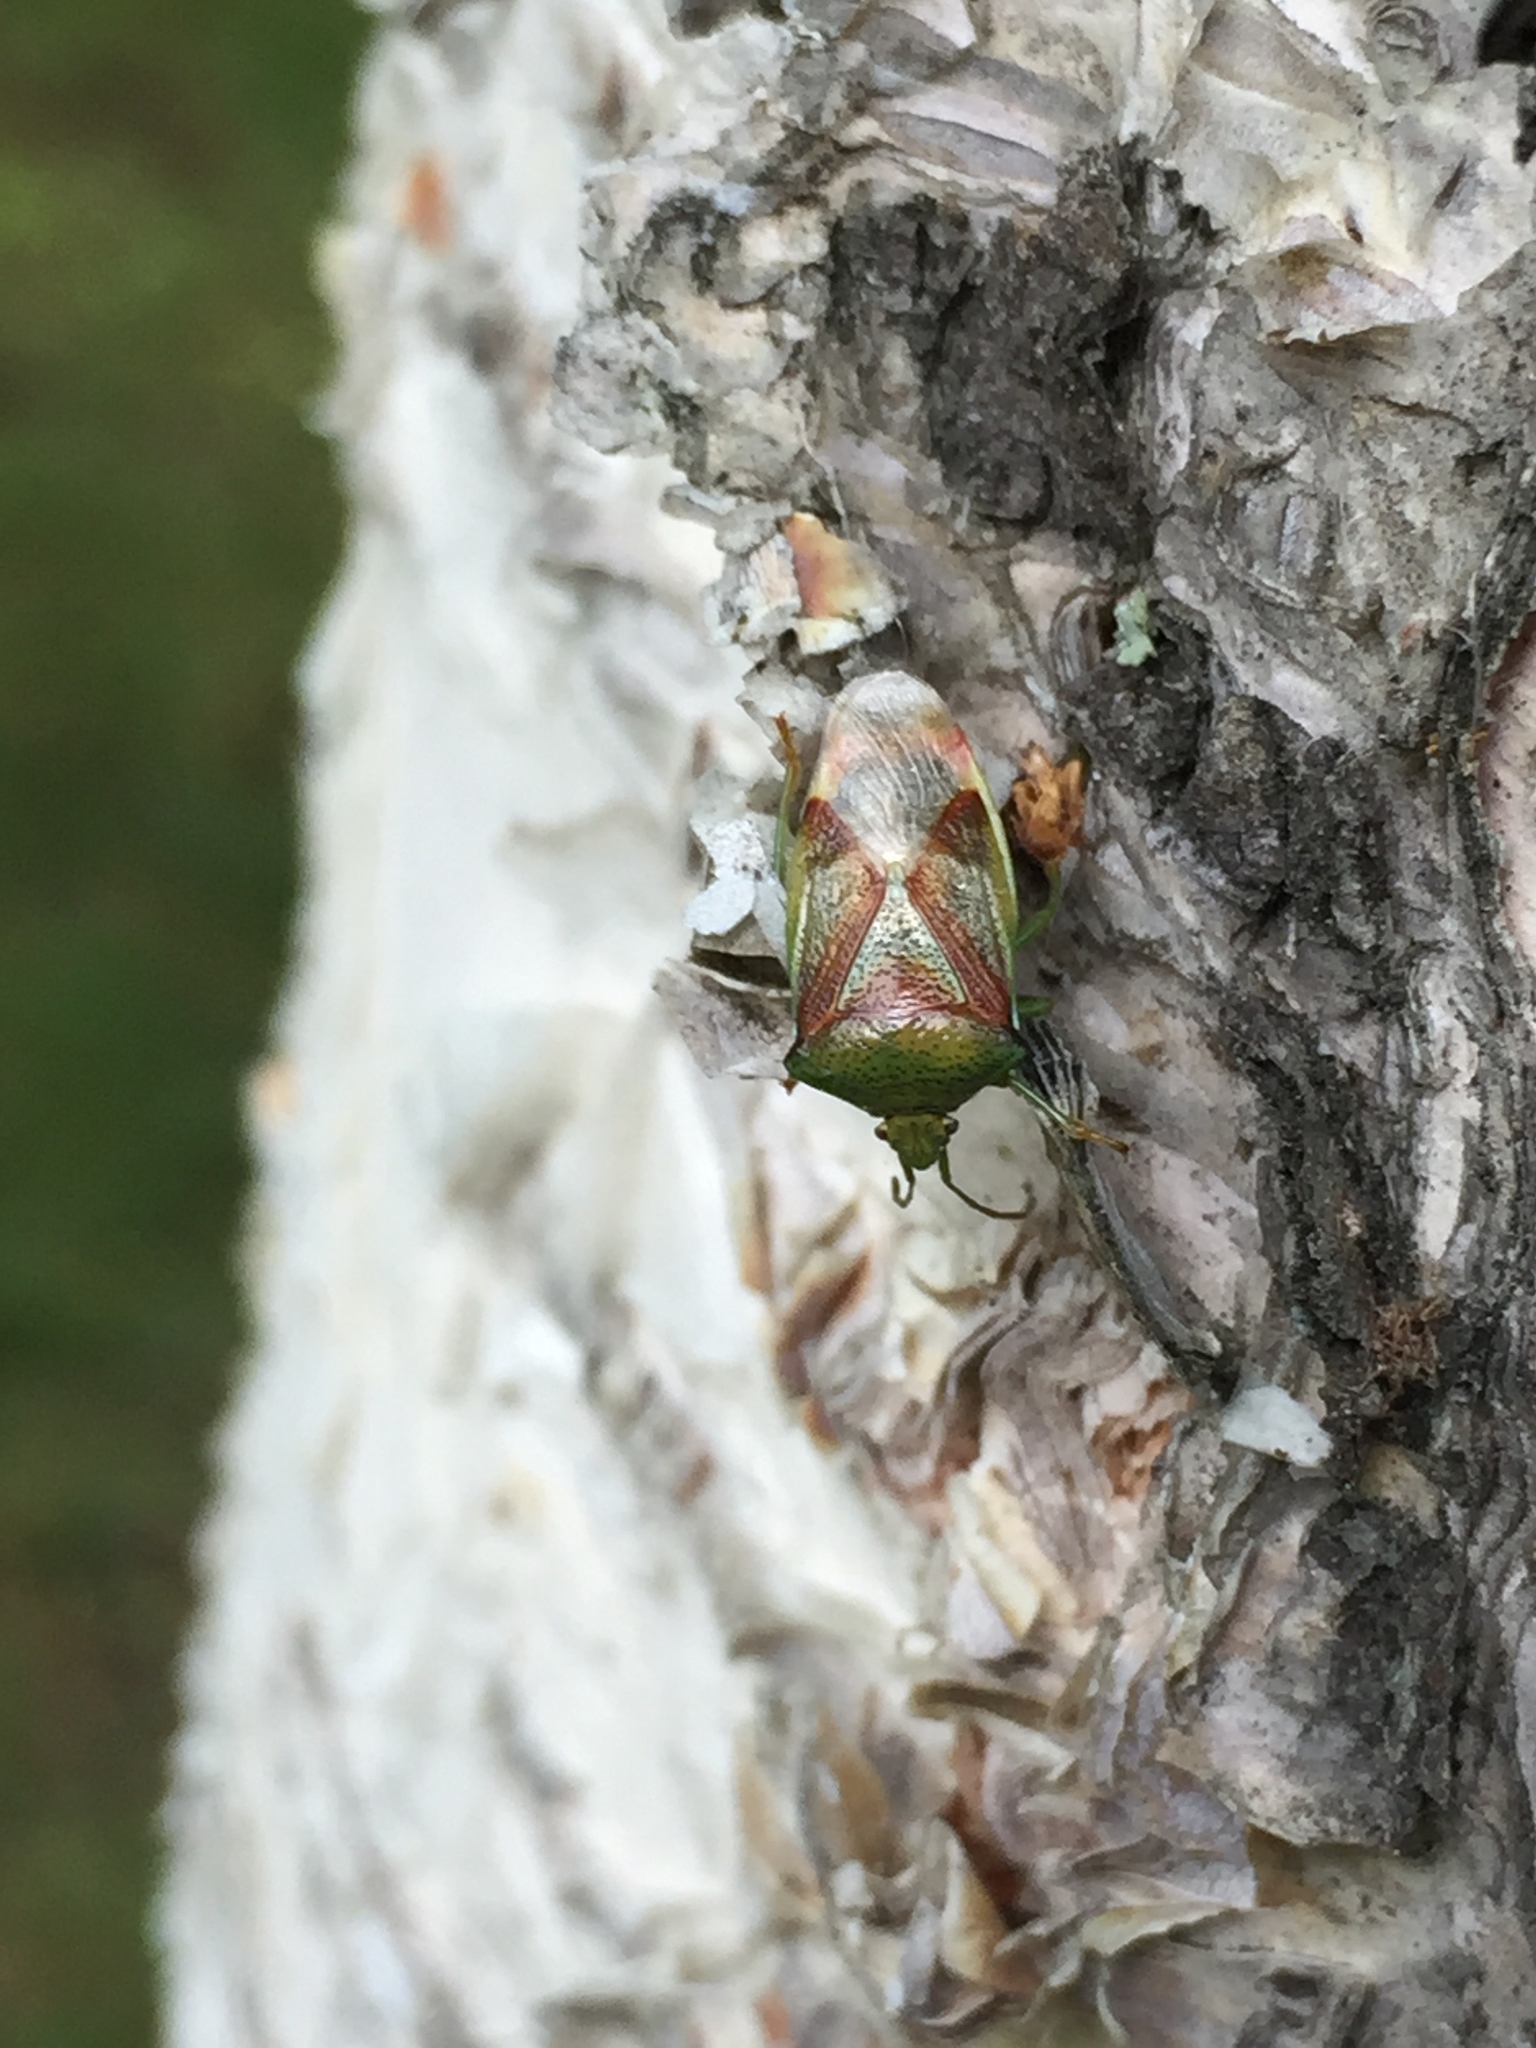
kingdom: Animalia
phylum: Arthropoda
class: Insecta
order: Hemiptera
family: Acanthosomatidae
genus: Elasmostethus
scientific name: Elasmostethus interstinctus
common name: Birch shieldbug
